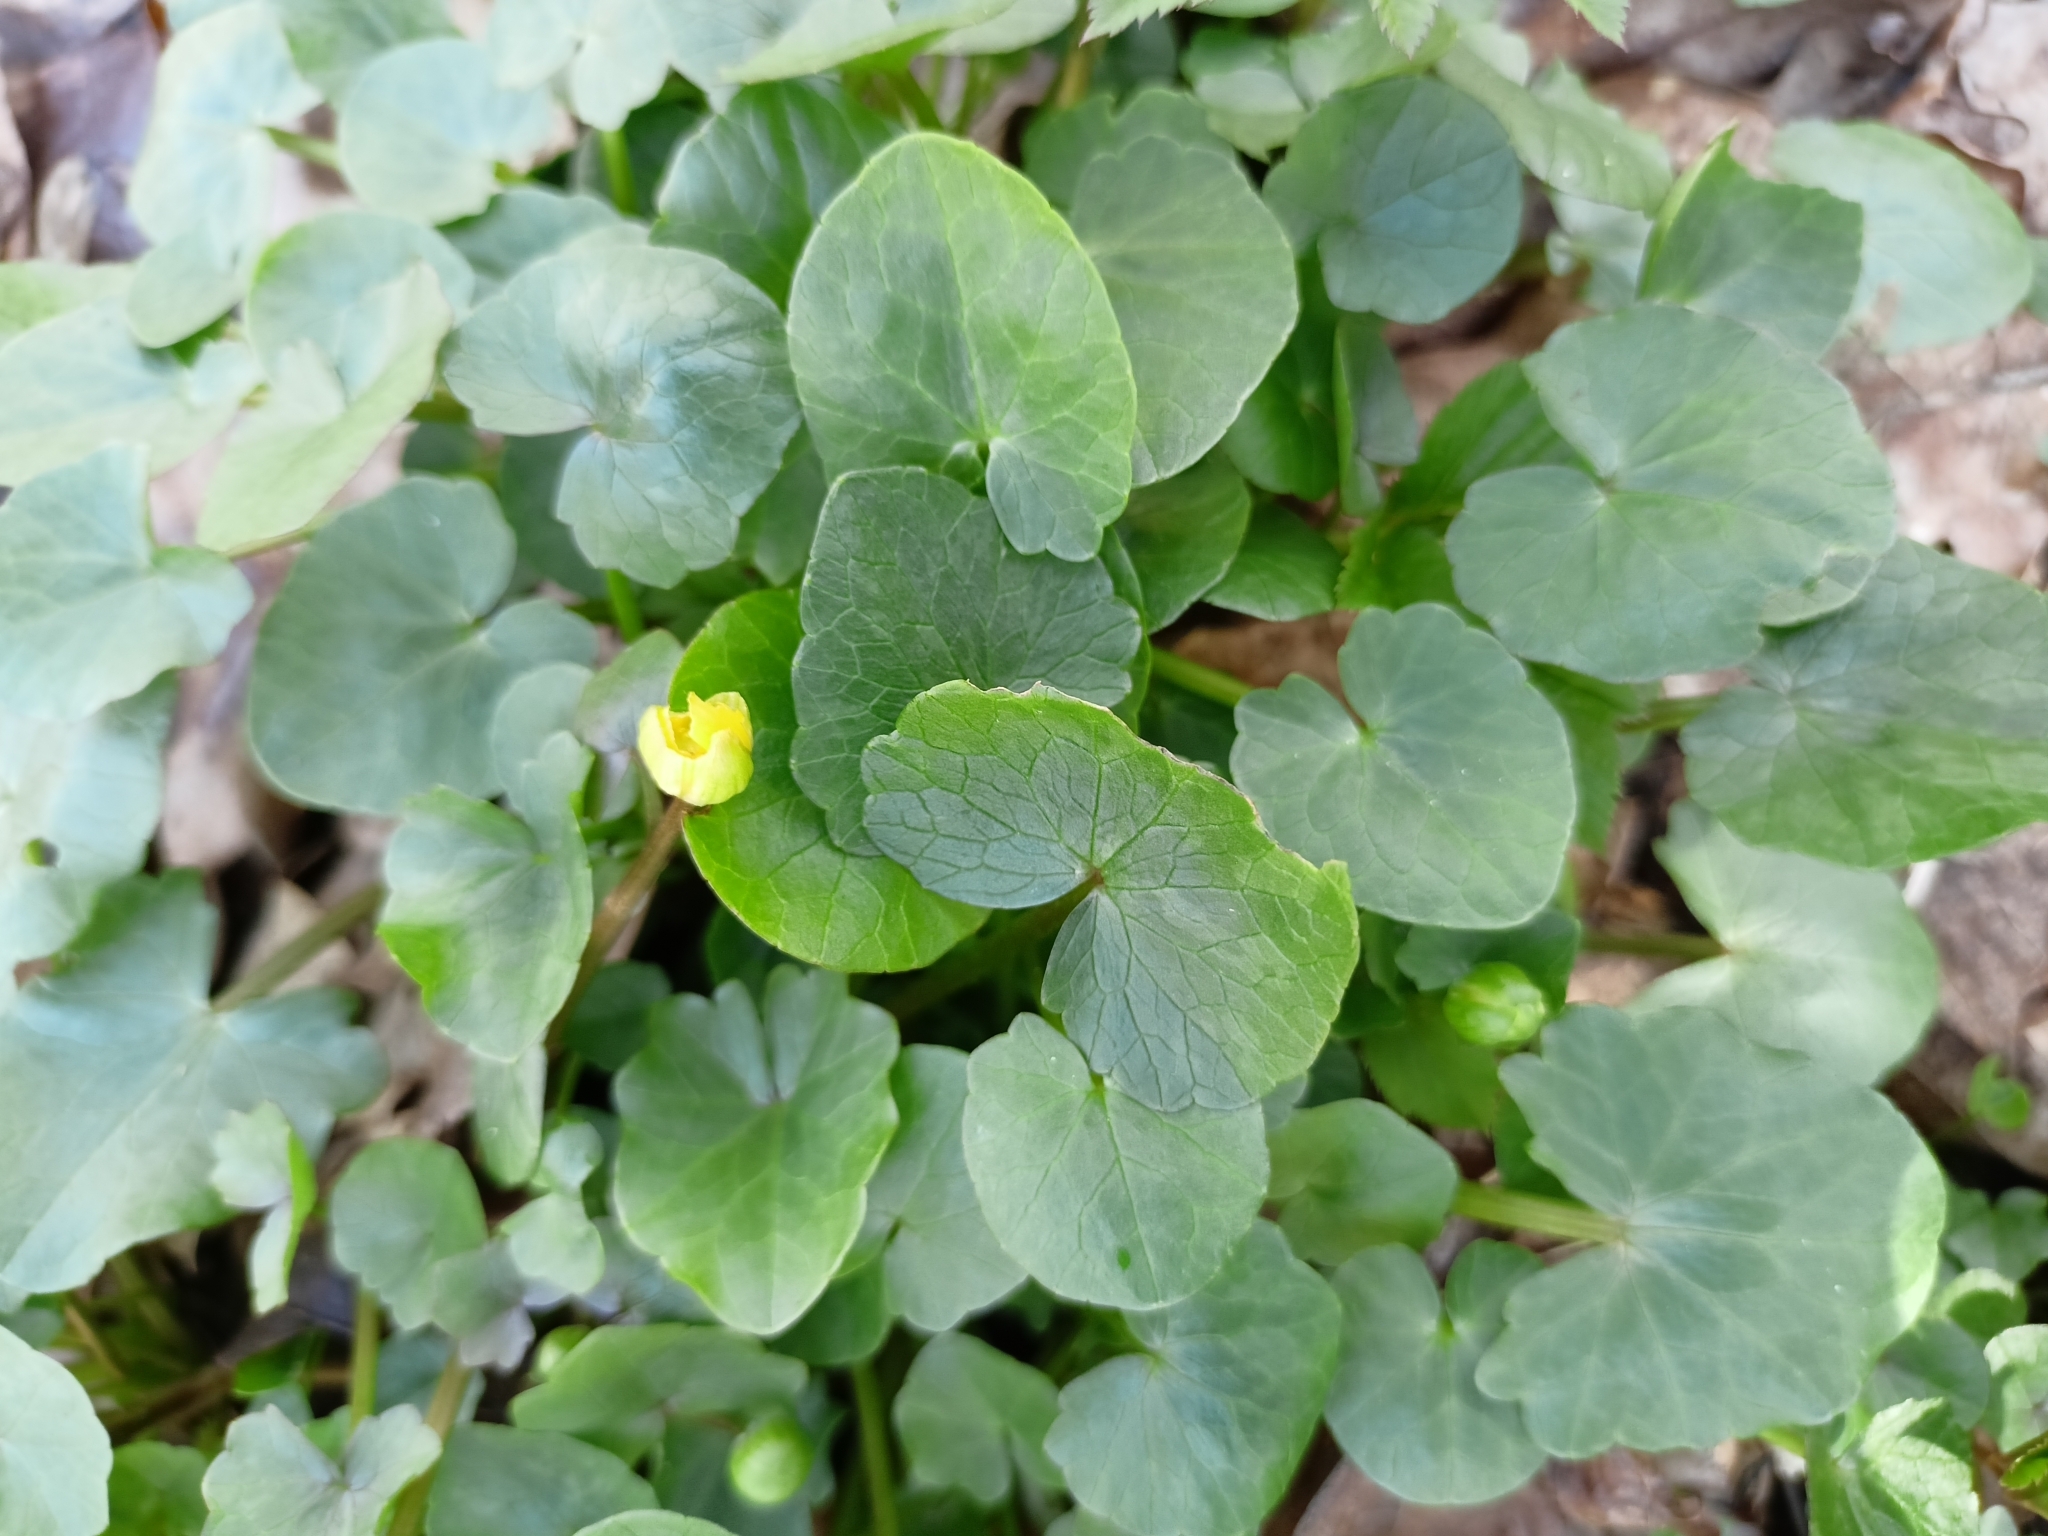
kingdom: Plantae
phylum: Tracheophyta
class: Magnoliopsida
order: Ranunculales
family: Ranunculaceae
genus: Ficaria
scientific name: Ficaria verna
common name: Lesser celandine
